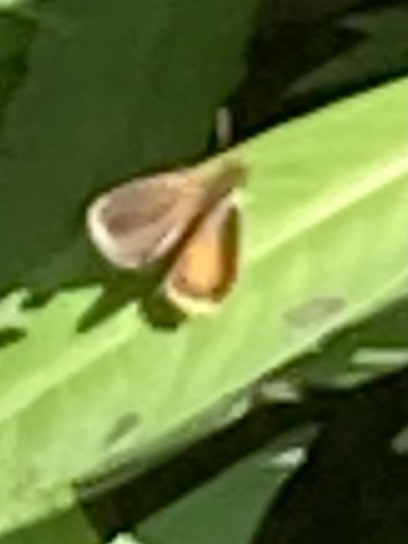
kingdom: Animalia
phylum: Arthropoda
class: Insecta
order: Lepidoptera
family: Hesperiidae
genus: Ancyloxypha
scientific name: Ancyloxypha numitor
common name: Least skipper
